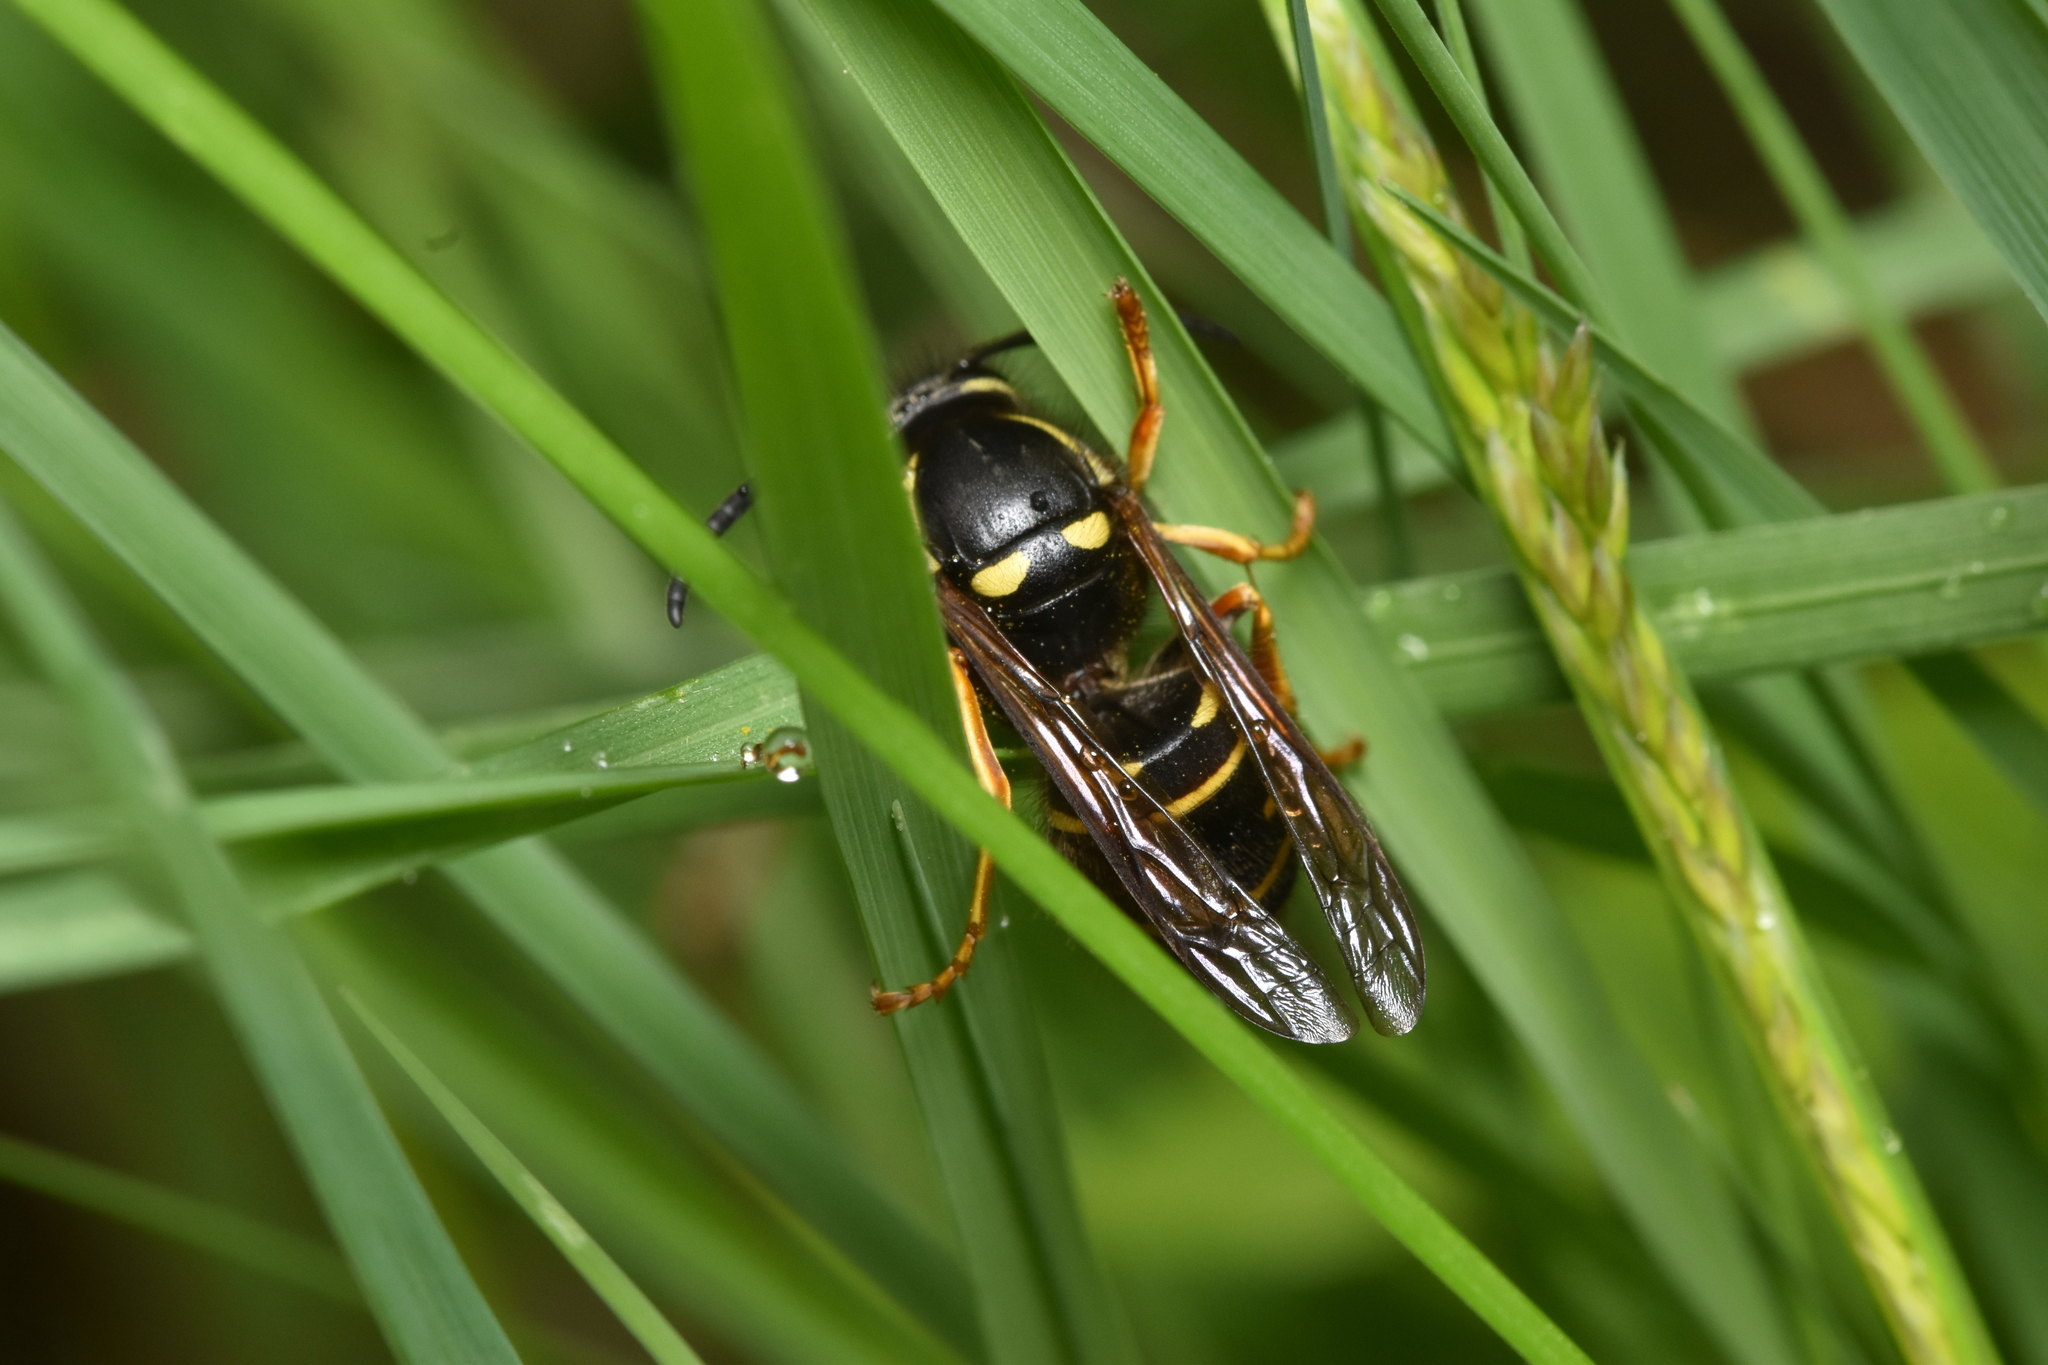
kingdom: Animalia
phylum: Arthropoda
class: Insecta
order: Hymenoptera
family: Vespidae
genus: Vespula
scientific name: Vespula acadica
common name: Forest yellowjacket
